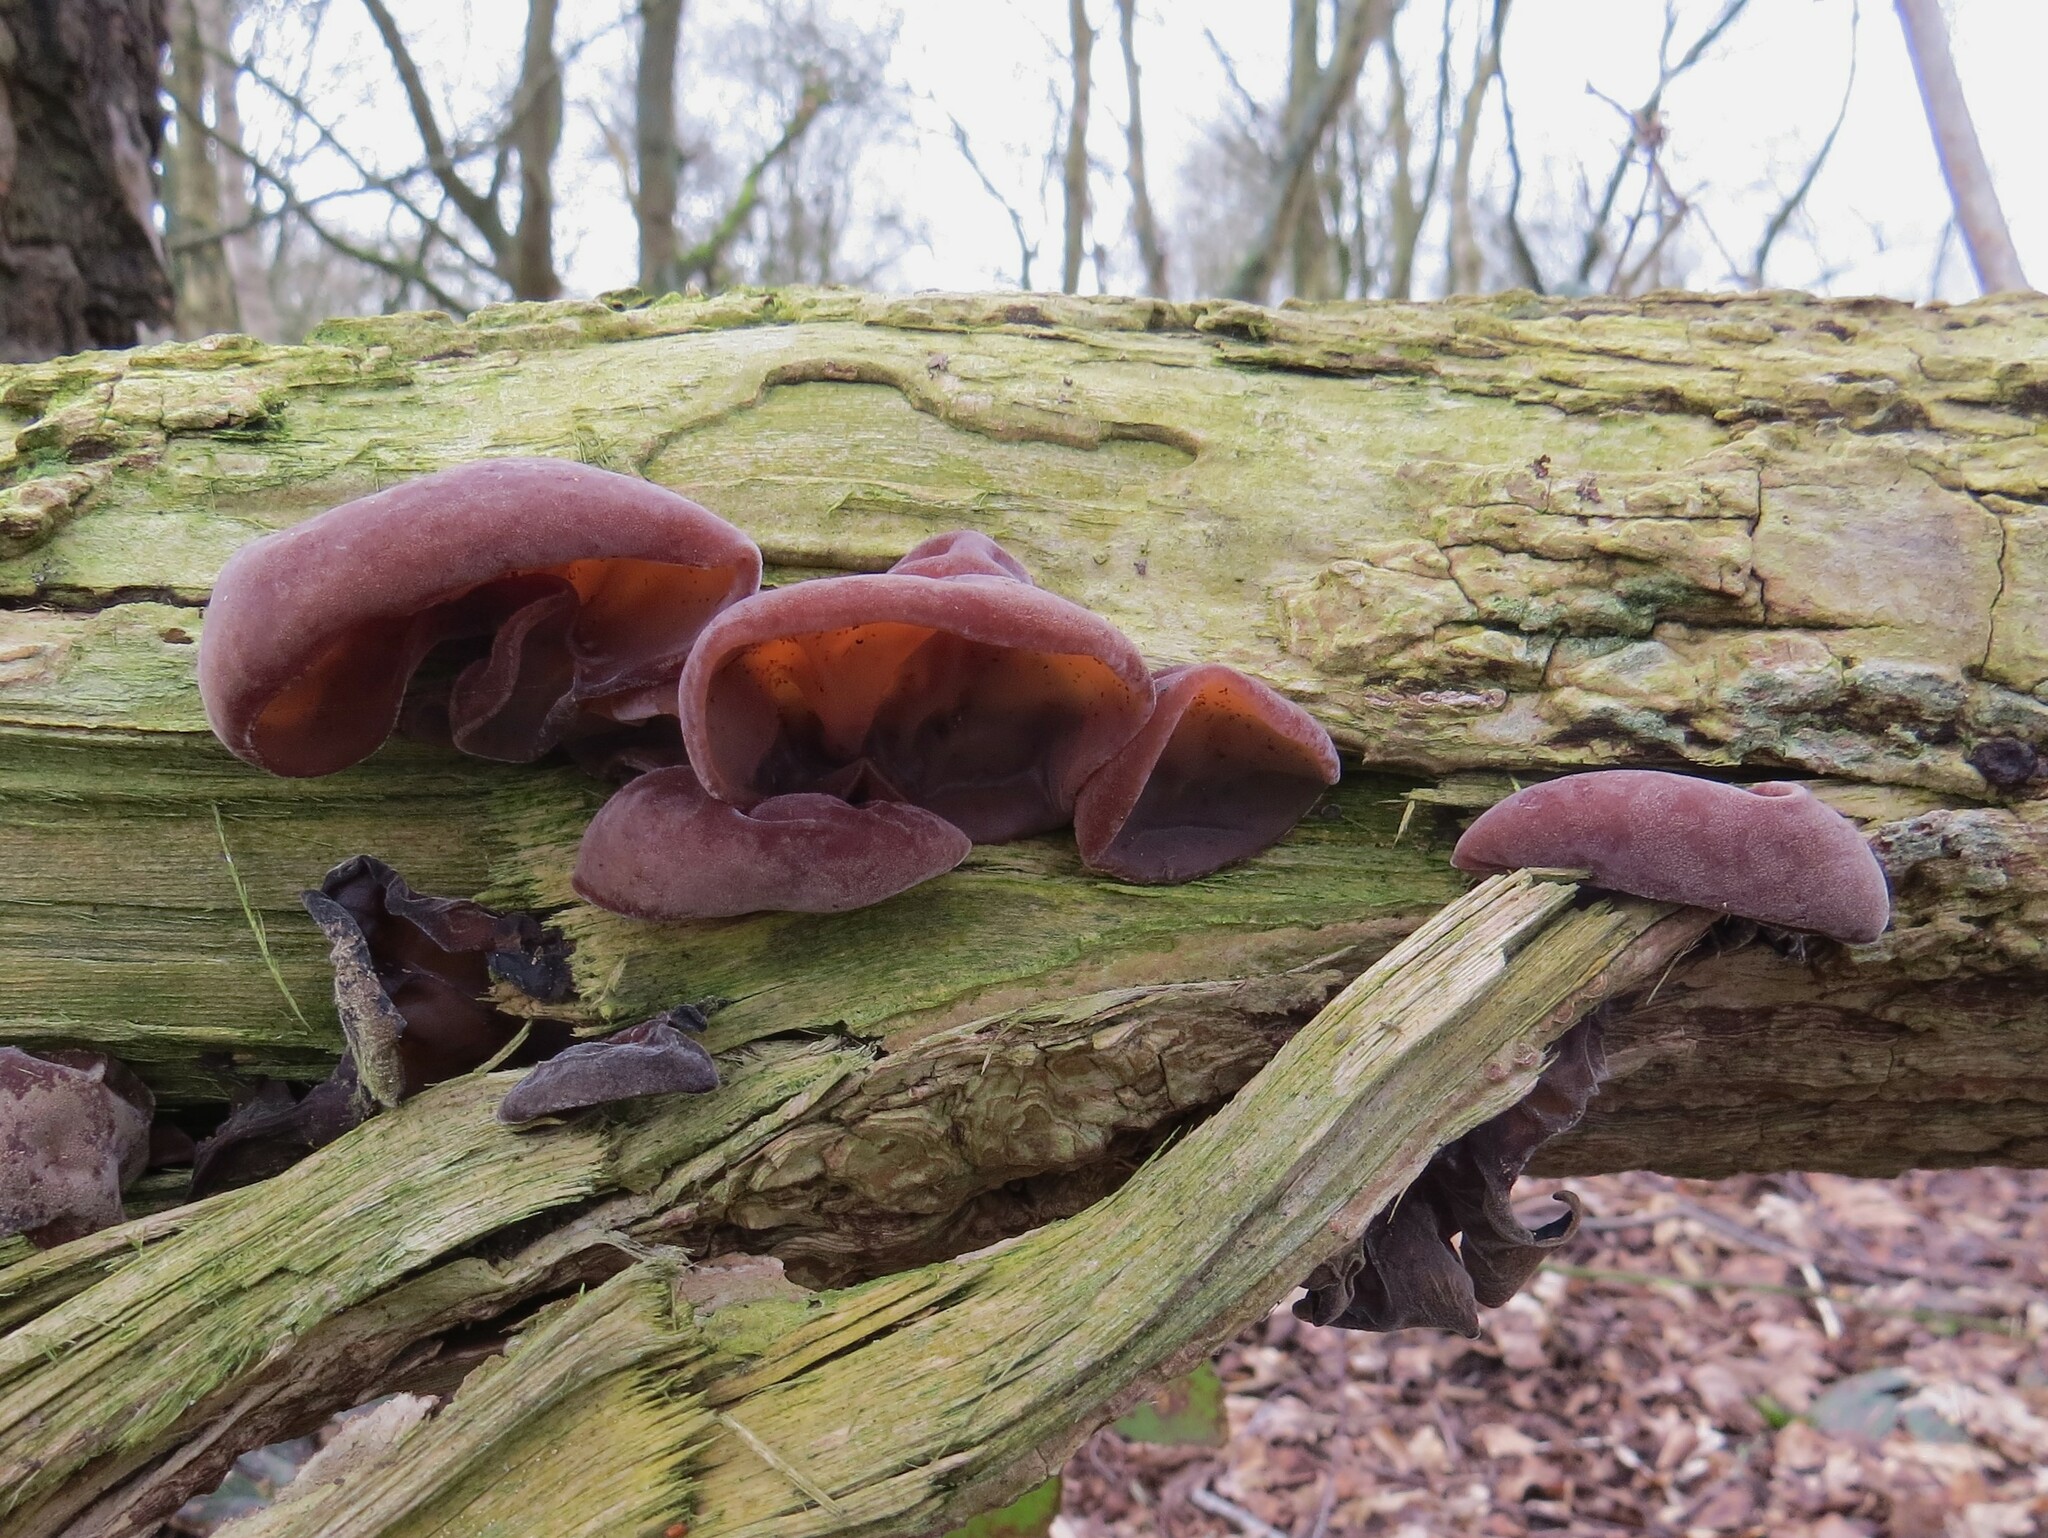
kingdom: Fungi
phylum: Basidiomycota
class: Agaricomycetes
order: Auriculariales
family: Auriculariaceae
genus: Auricularia
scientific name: Auricularia auricula-judae
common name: Jelly ear
